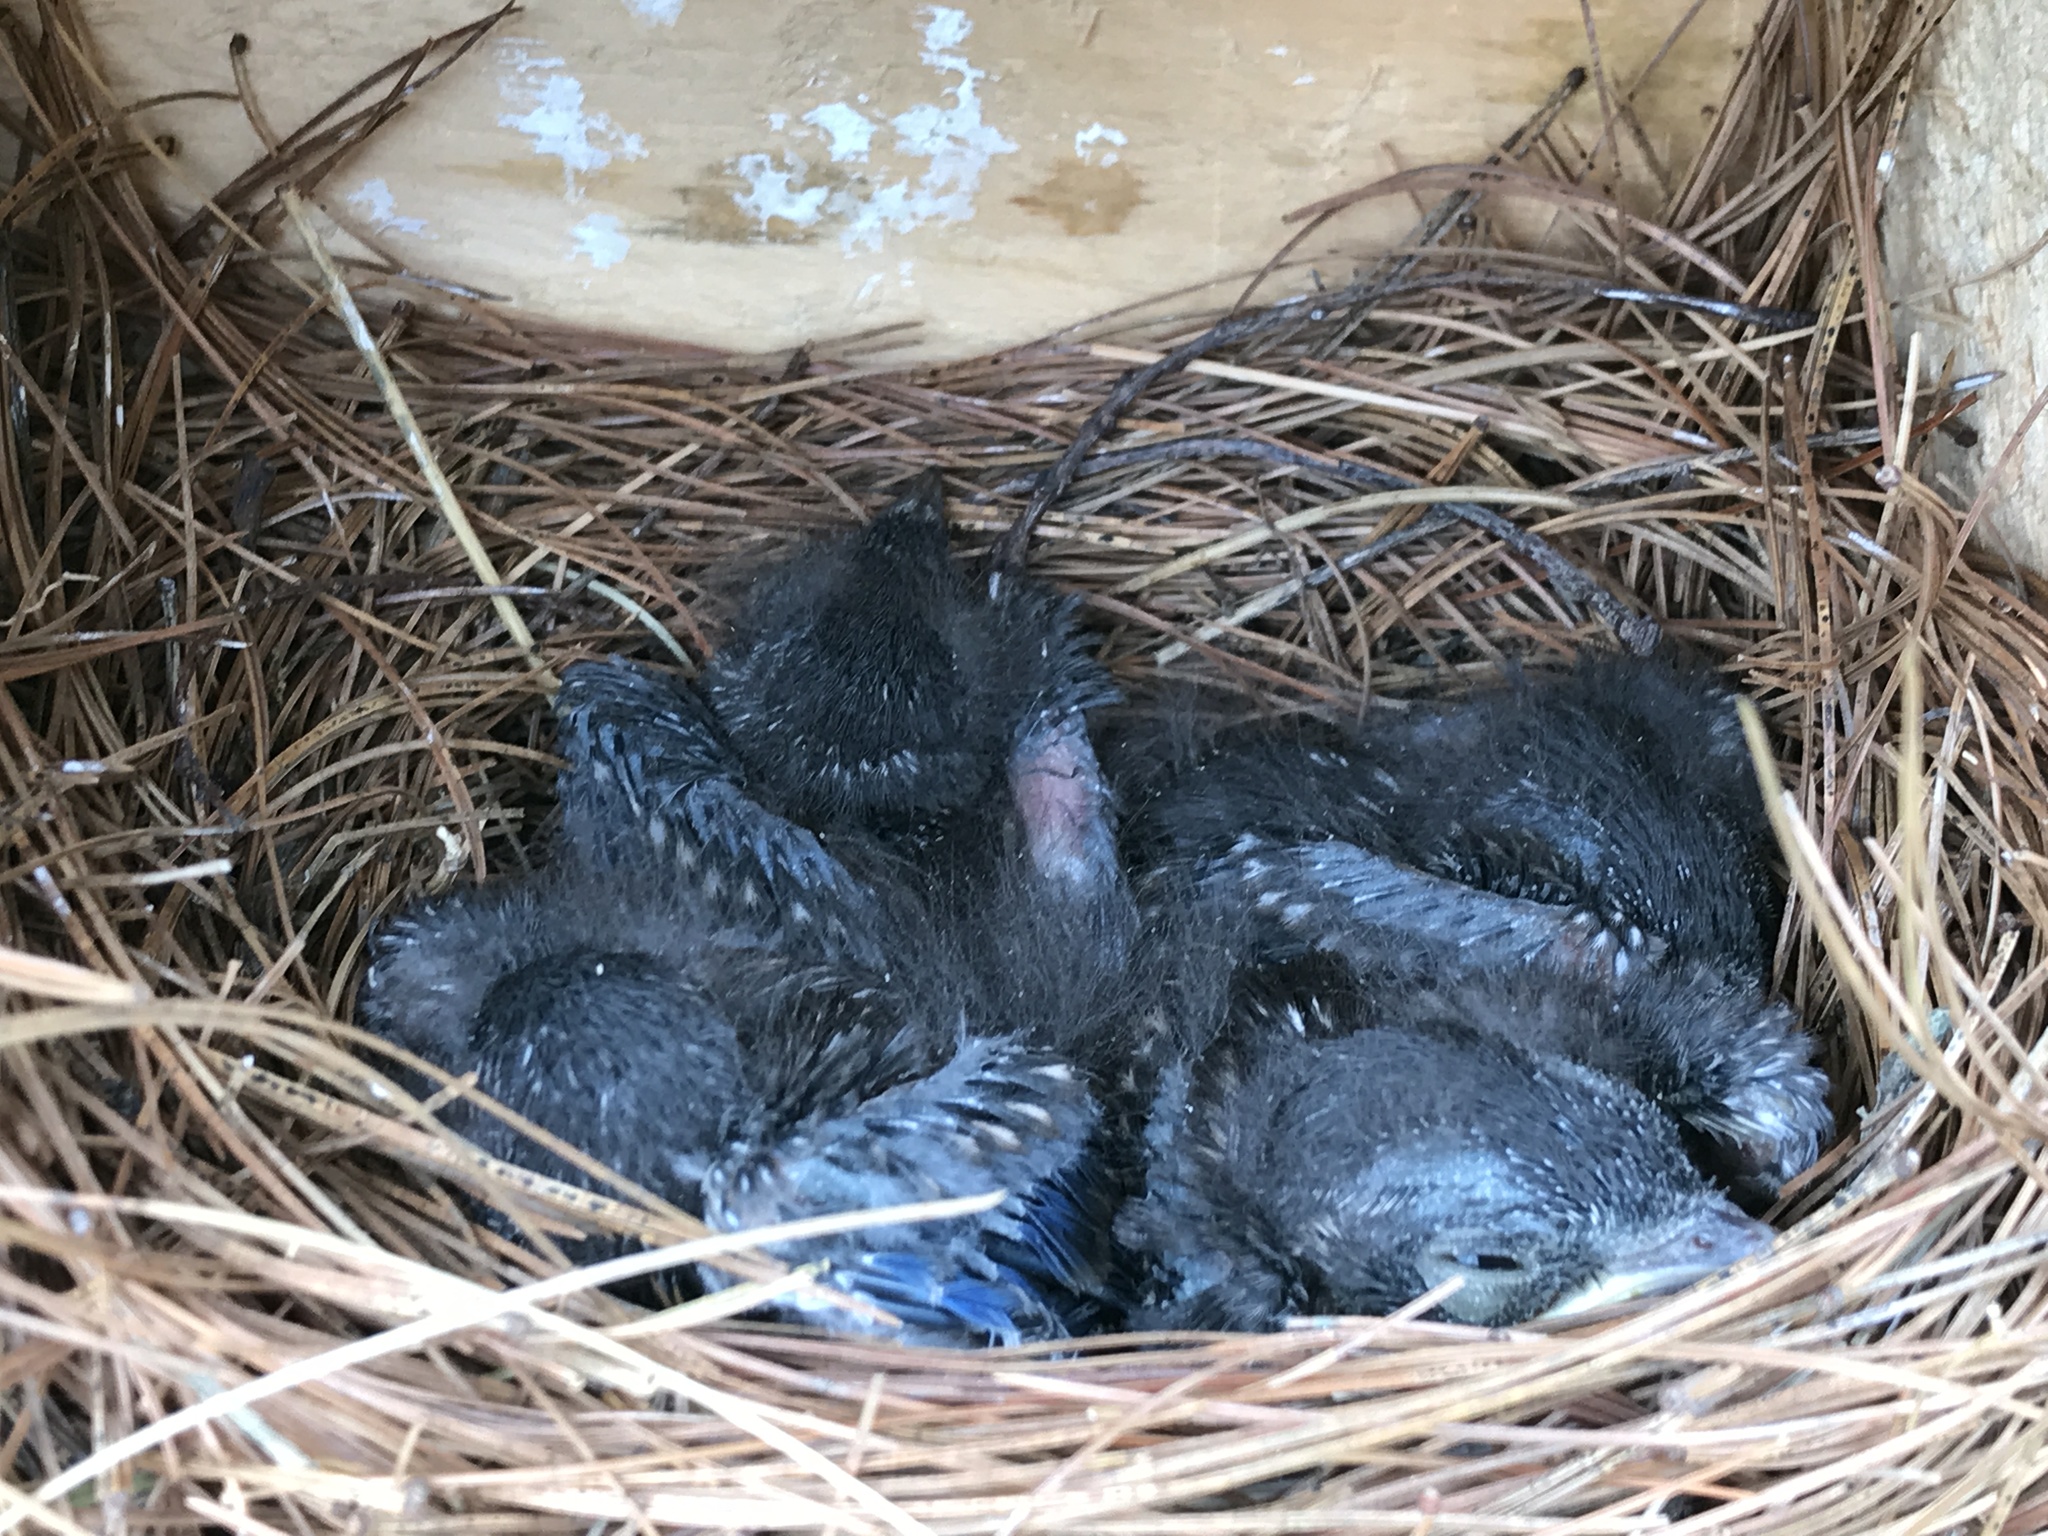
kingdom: Animalia
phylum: Chordata
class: Aves
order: Passeriformes
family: Turdidae
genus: Sialia
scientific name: Sialia sialis
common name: Eastern bluebird
